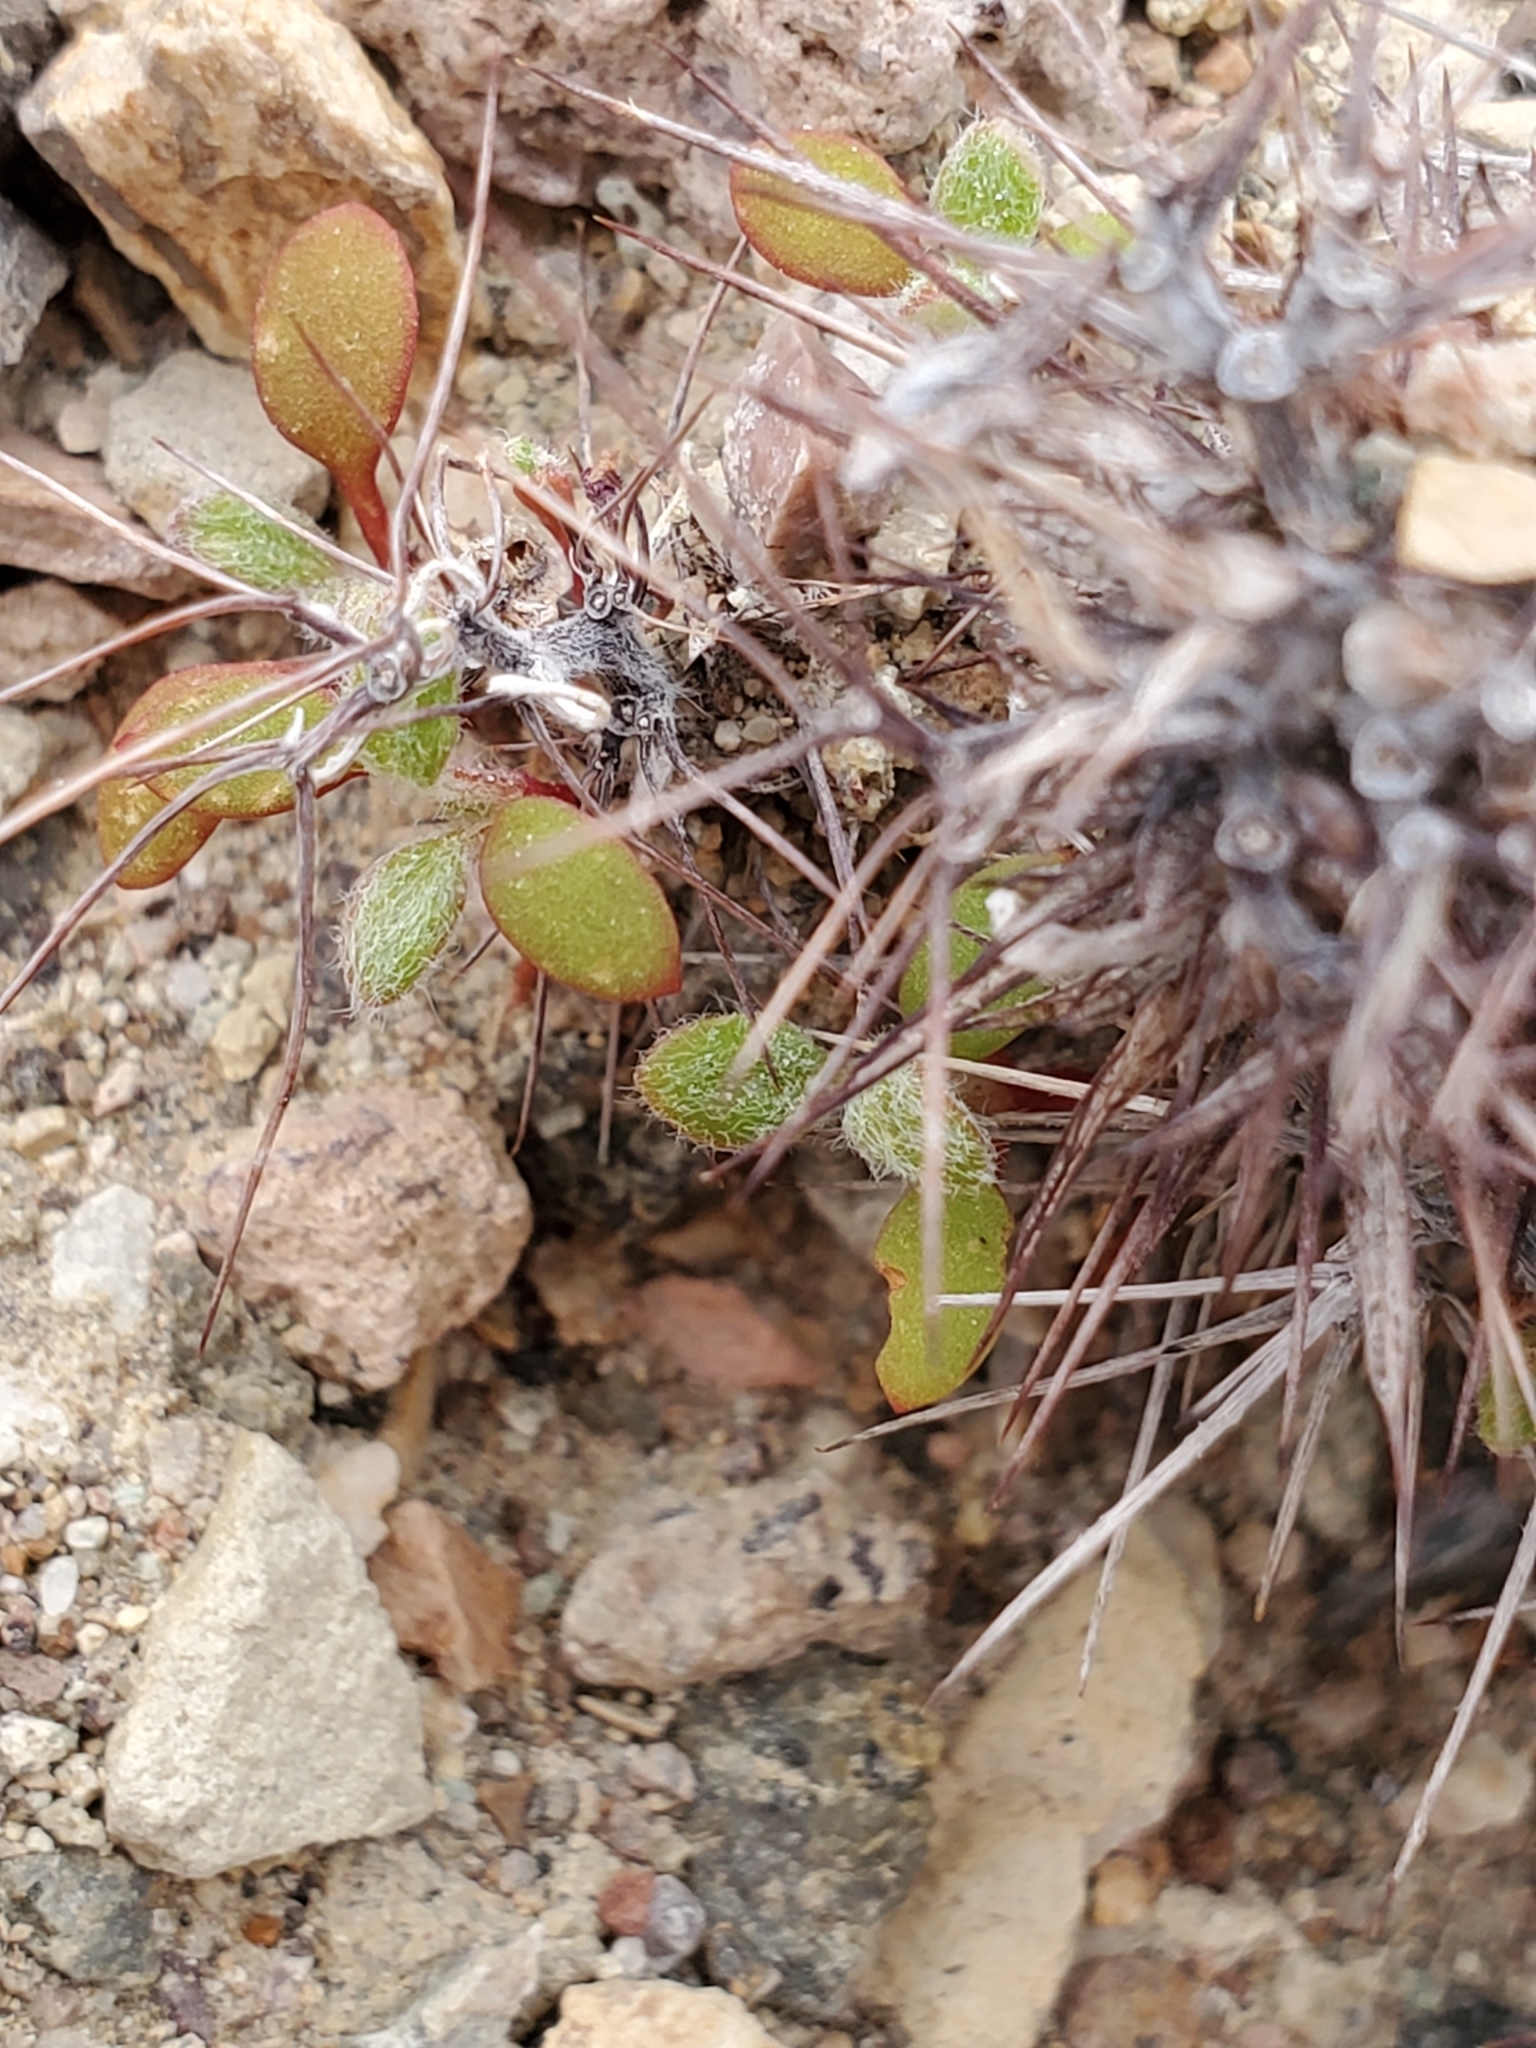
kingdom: Plantae
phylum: Tracheophyta
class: Magnoliopsida
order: Caryophyllales
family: Polygonaceae
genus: Chorizanthe
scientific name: Chorizanthe rigida
